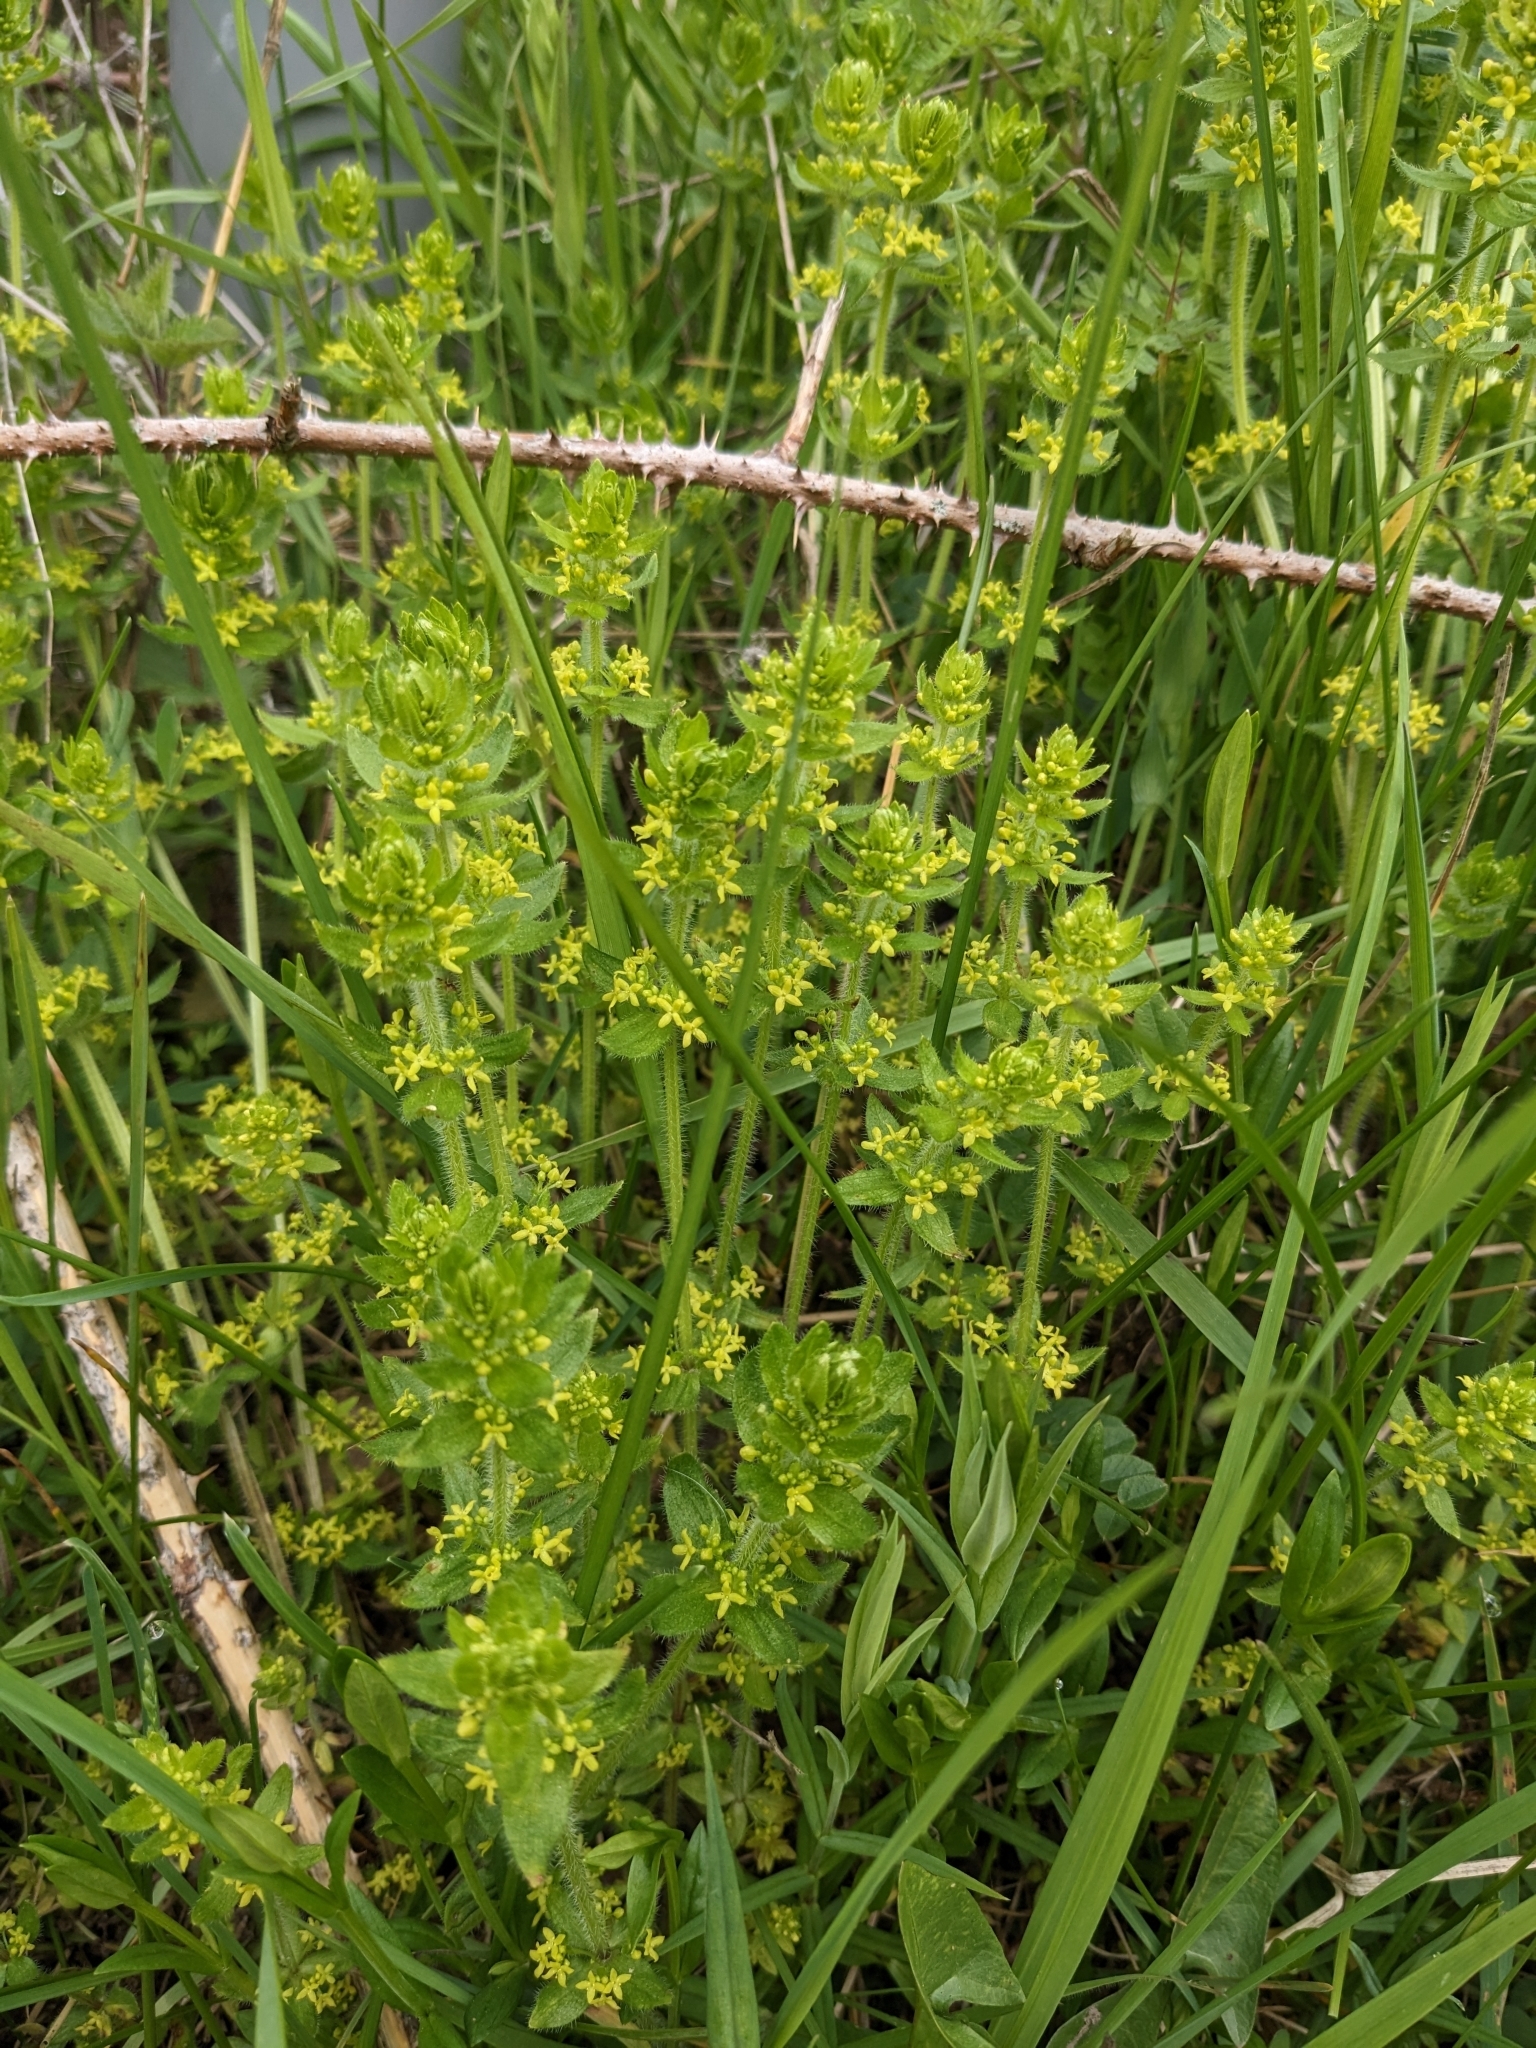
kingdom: Plantae
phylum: Tracheophyta
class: Magnoliopsida
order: Gentianales
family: Rubiaceae
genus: Cruciata
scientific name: Cruciata laevipes
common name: Crosswort
